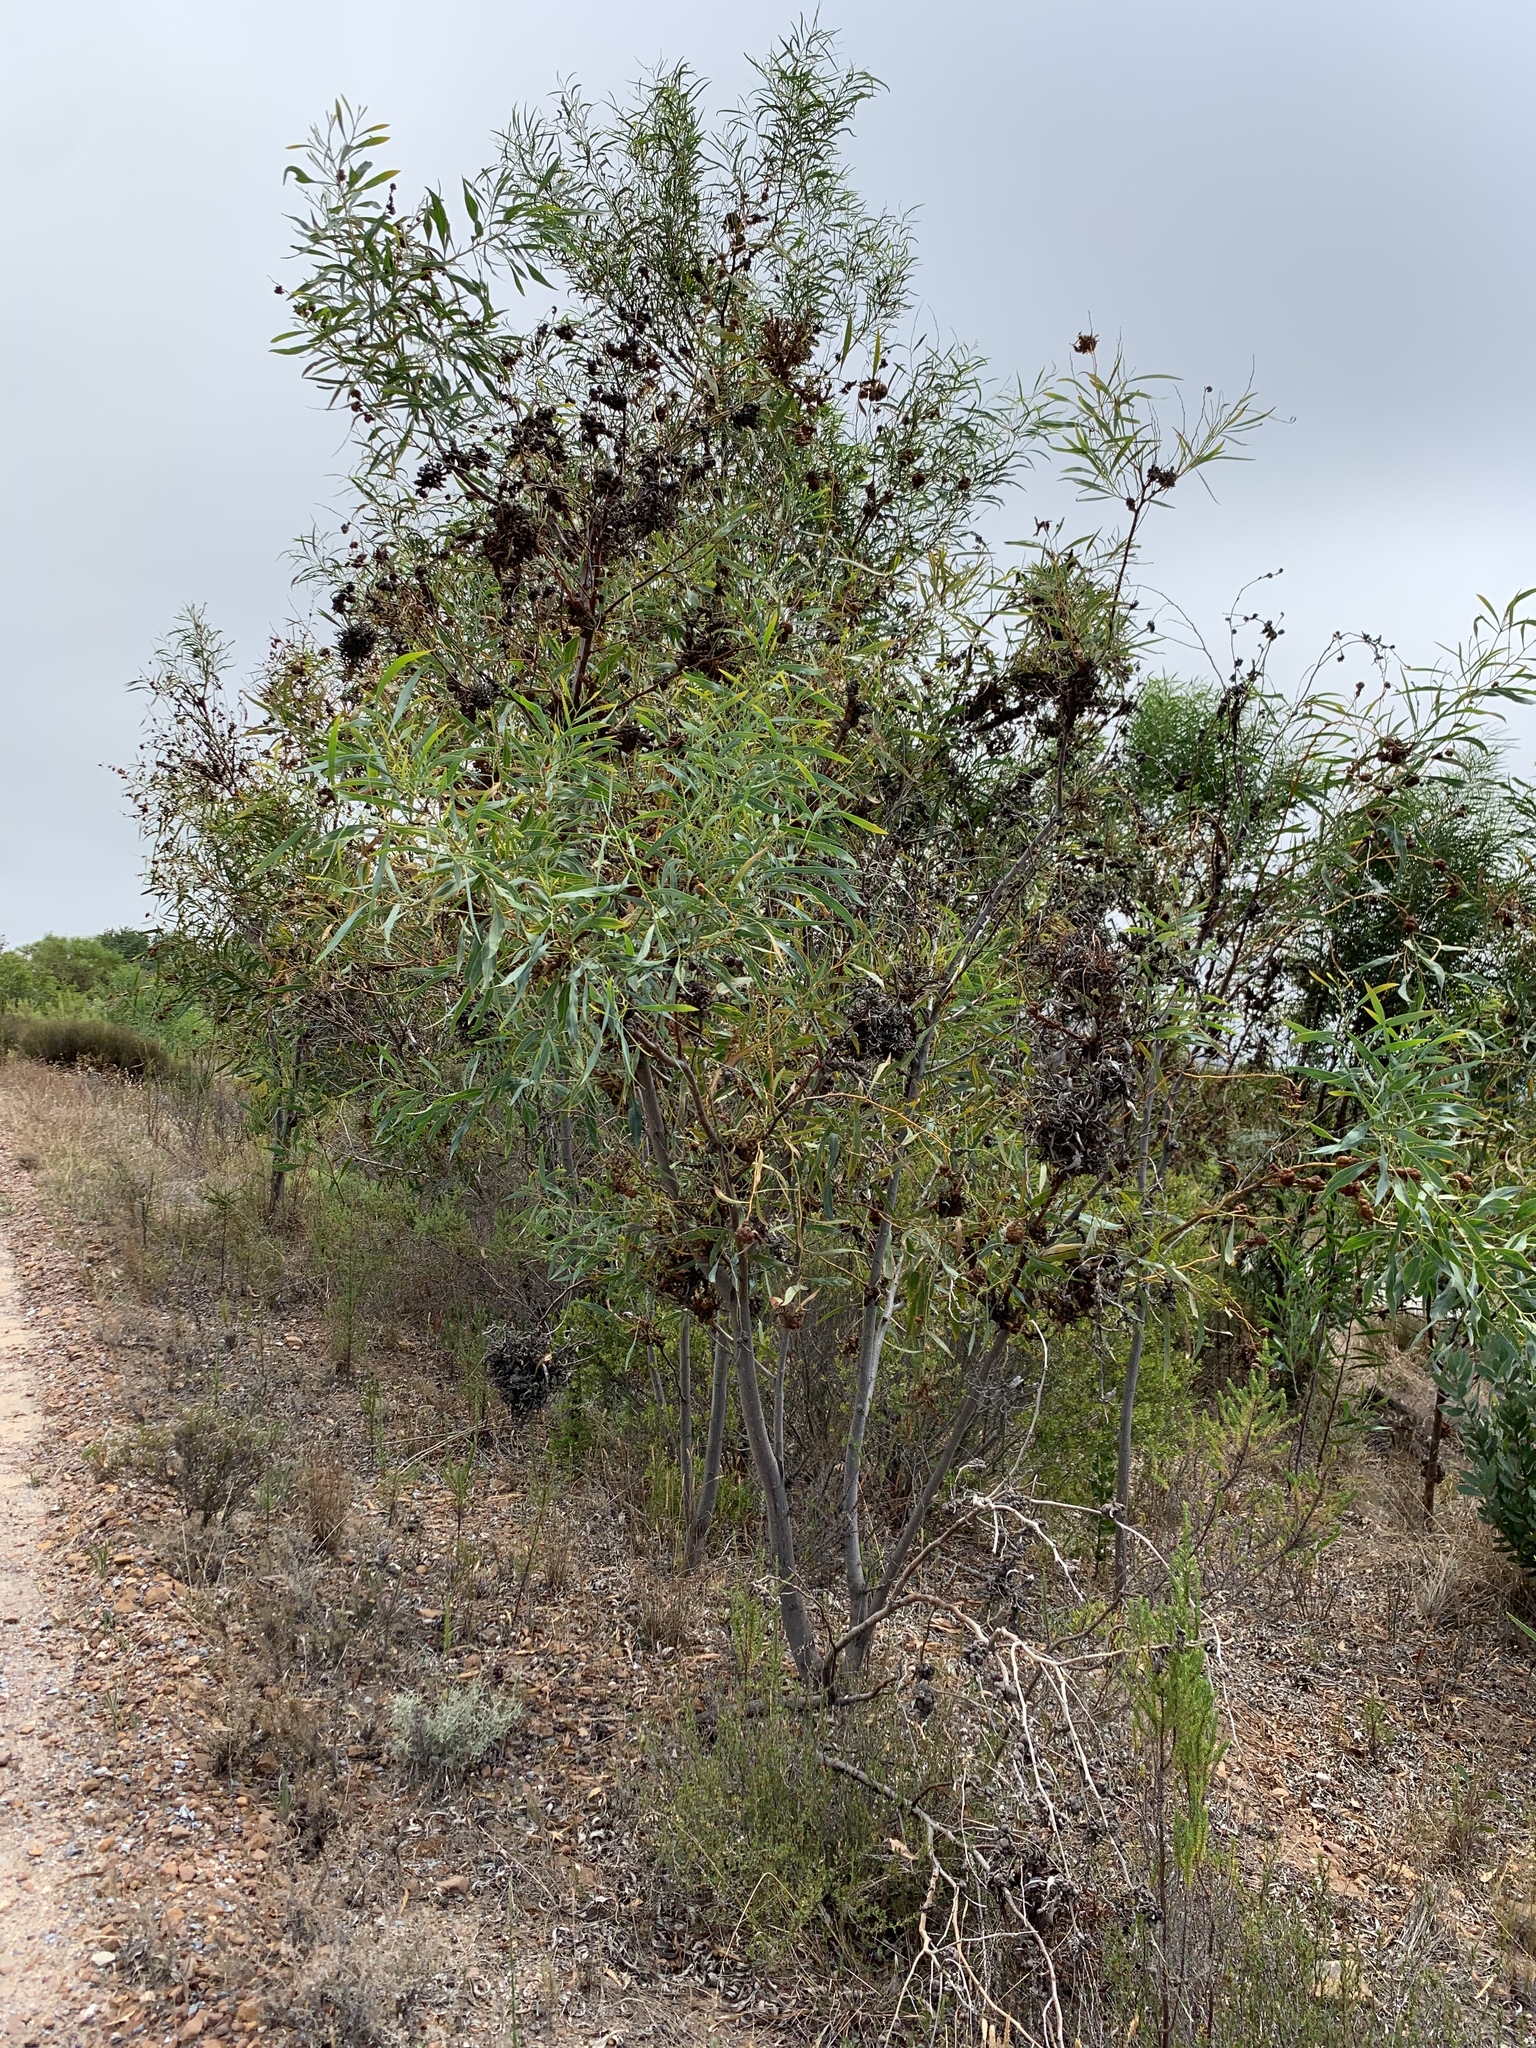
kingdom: Plantae
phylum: Tracheophyta
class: Magnoliopsida
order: Fabales
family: Fabaceae
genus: Acacia
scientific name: Acacia saligna
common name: Orange wattle
